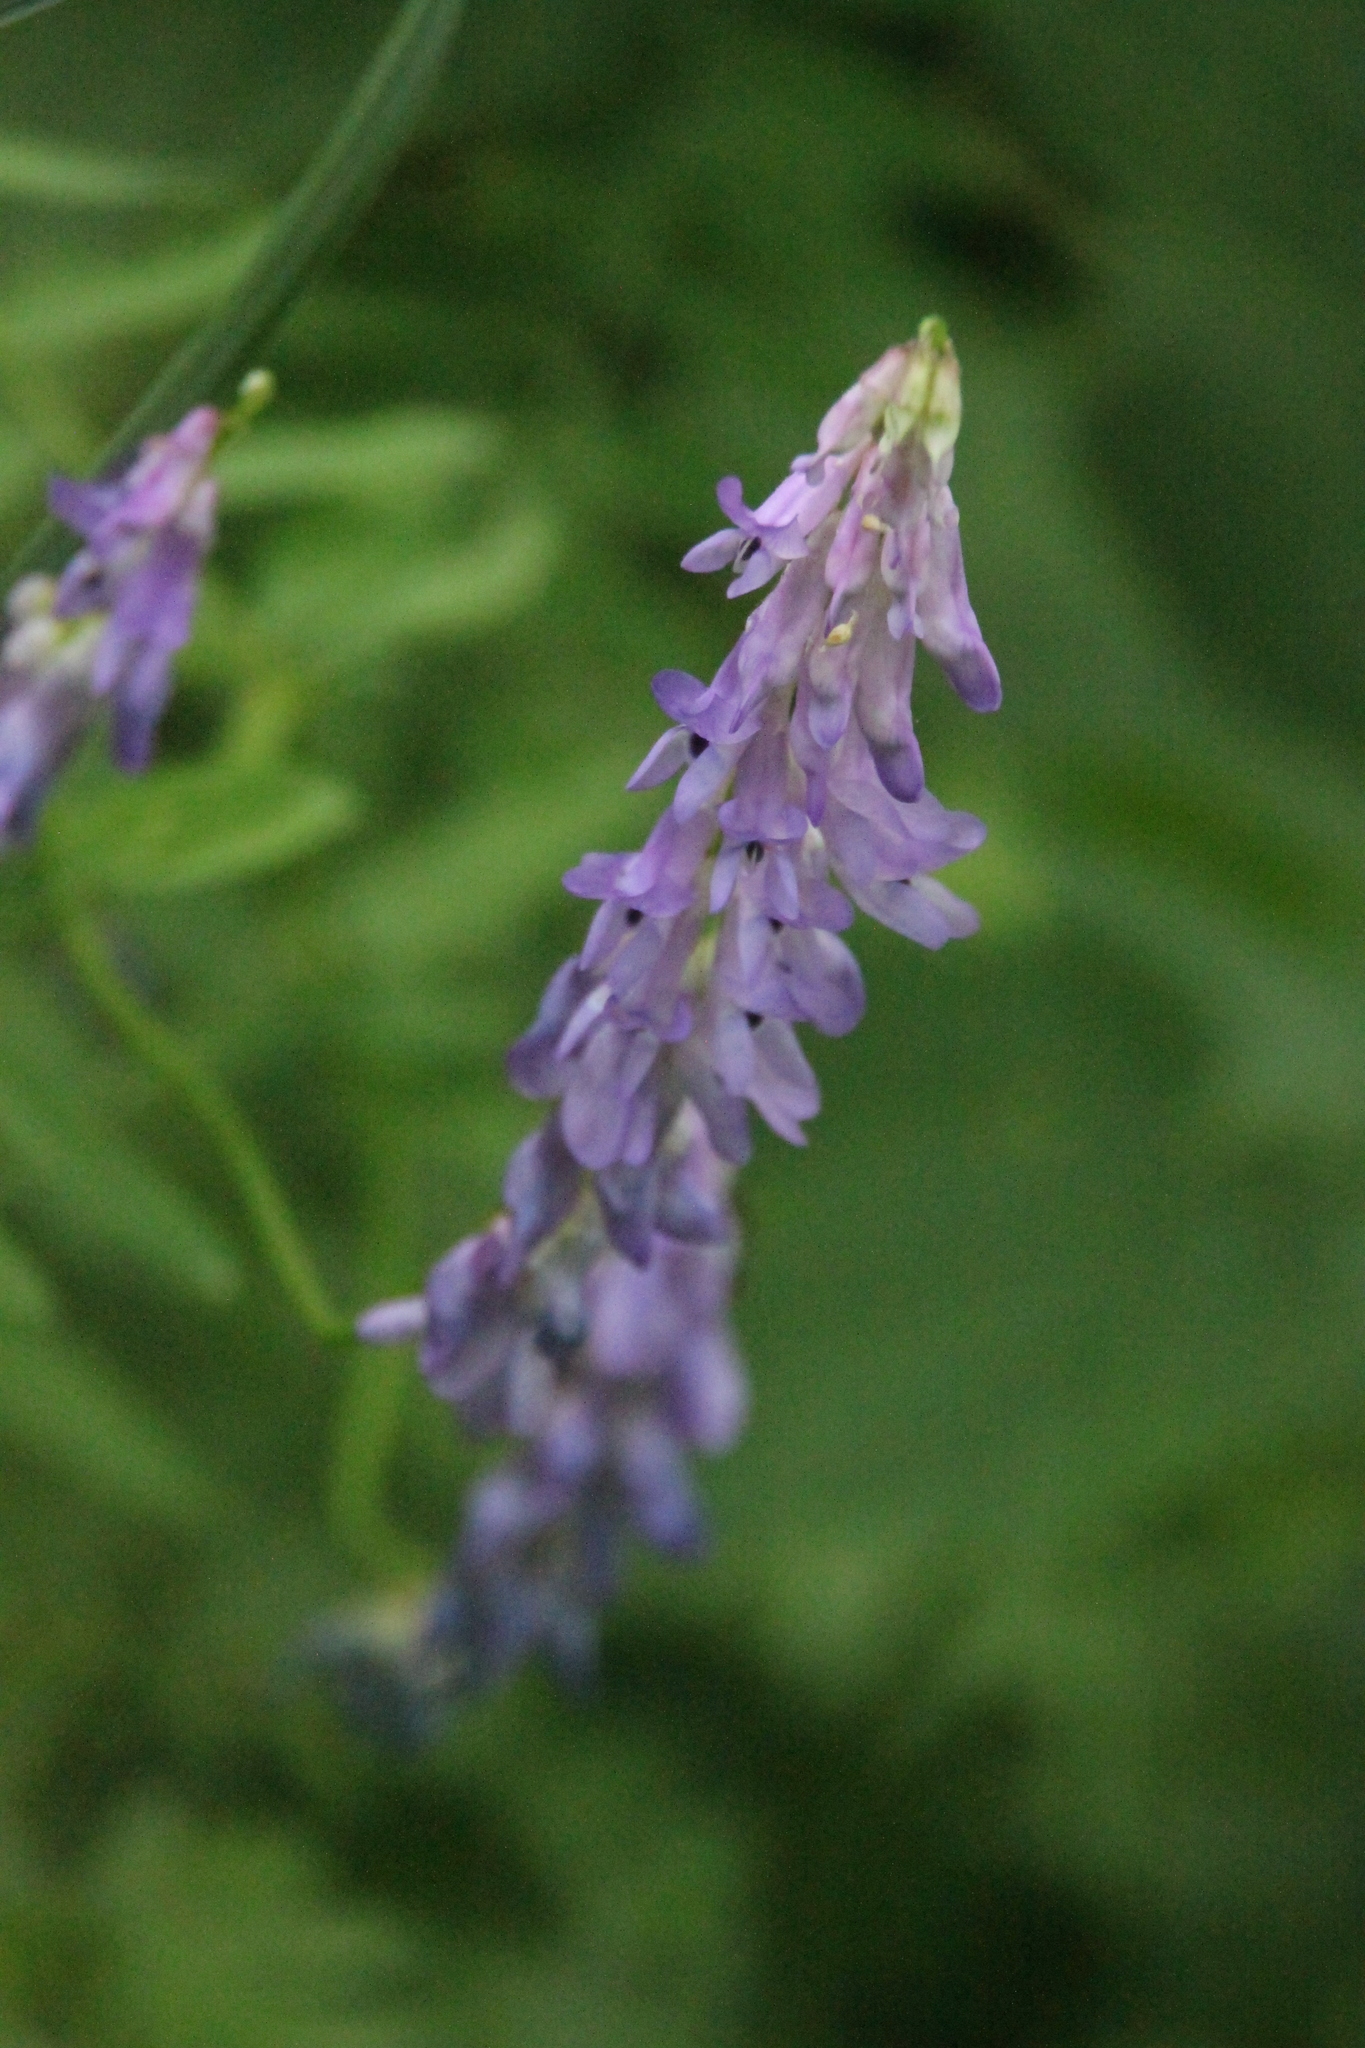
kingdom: Plantae
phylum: Tracheophyta
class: Magnoliopsida
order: Fabales
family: Fabaceae
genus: Vicia
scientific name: Vicia cracca
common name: Bird vetch
